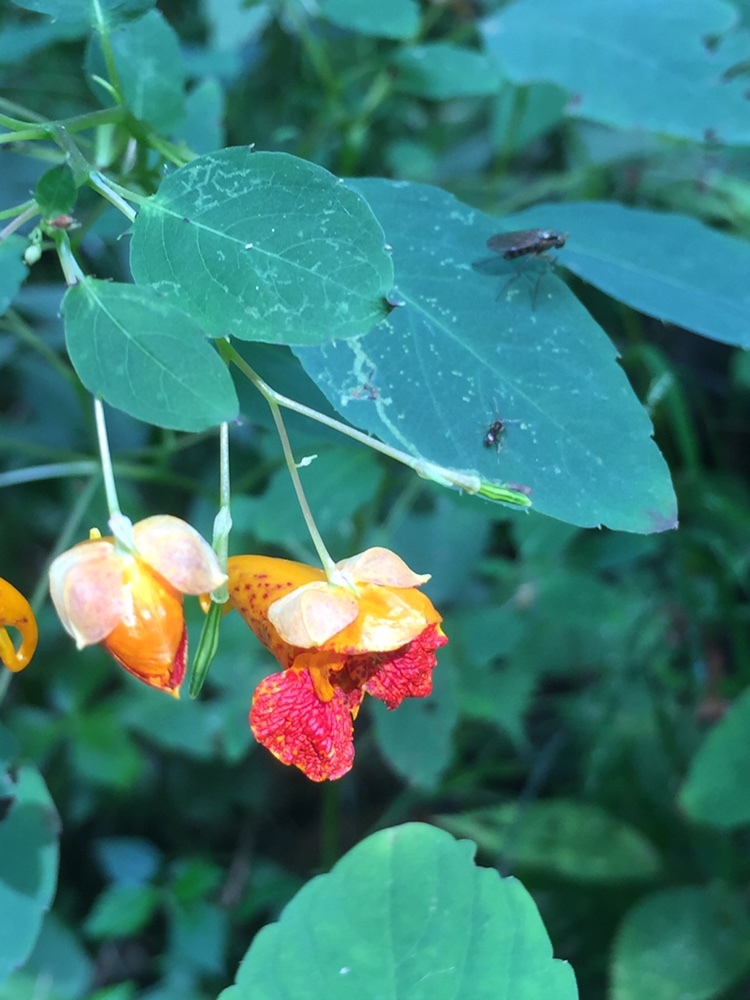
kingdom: Plantae
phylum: Tracheophyta
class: Magnoliopsida
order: Ericales
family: Balsaminaceae
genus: Impatiens
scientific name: Impatiens capensis
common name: Orange balsam
